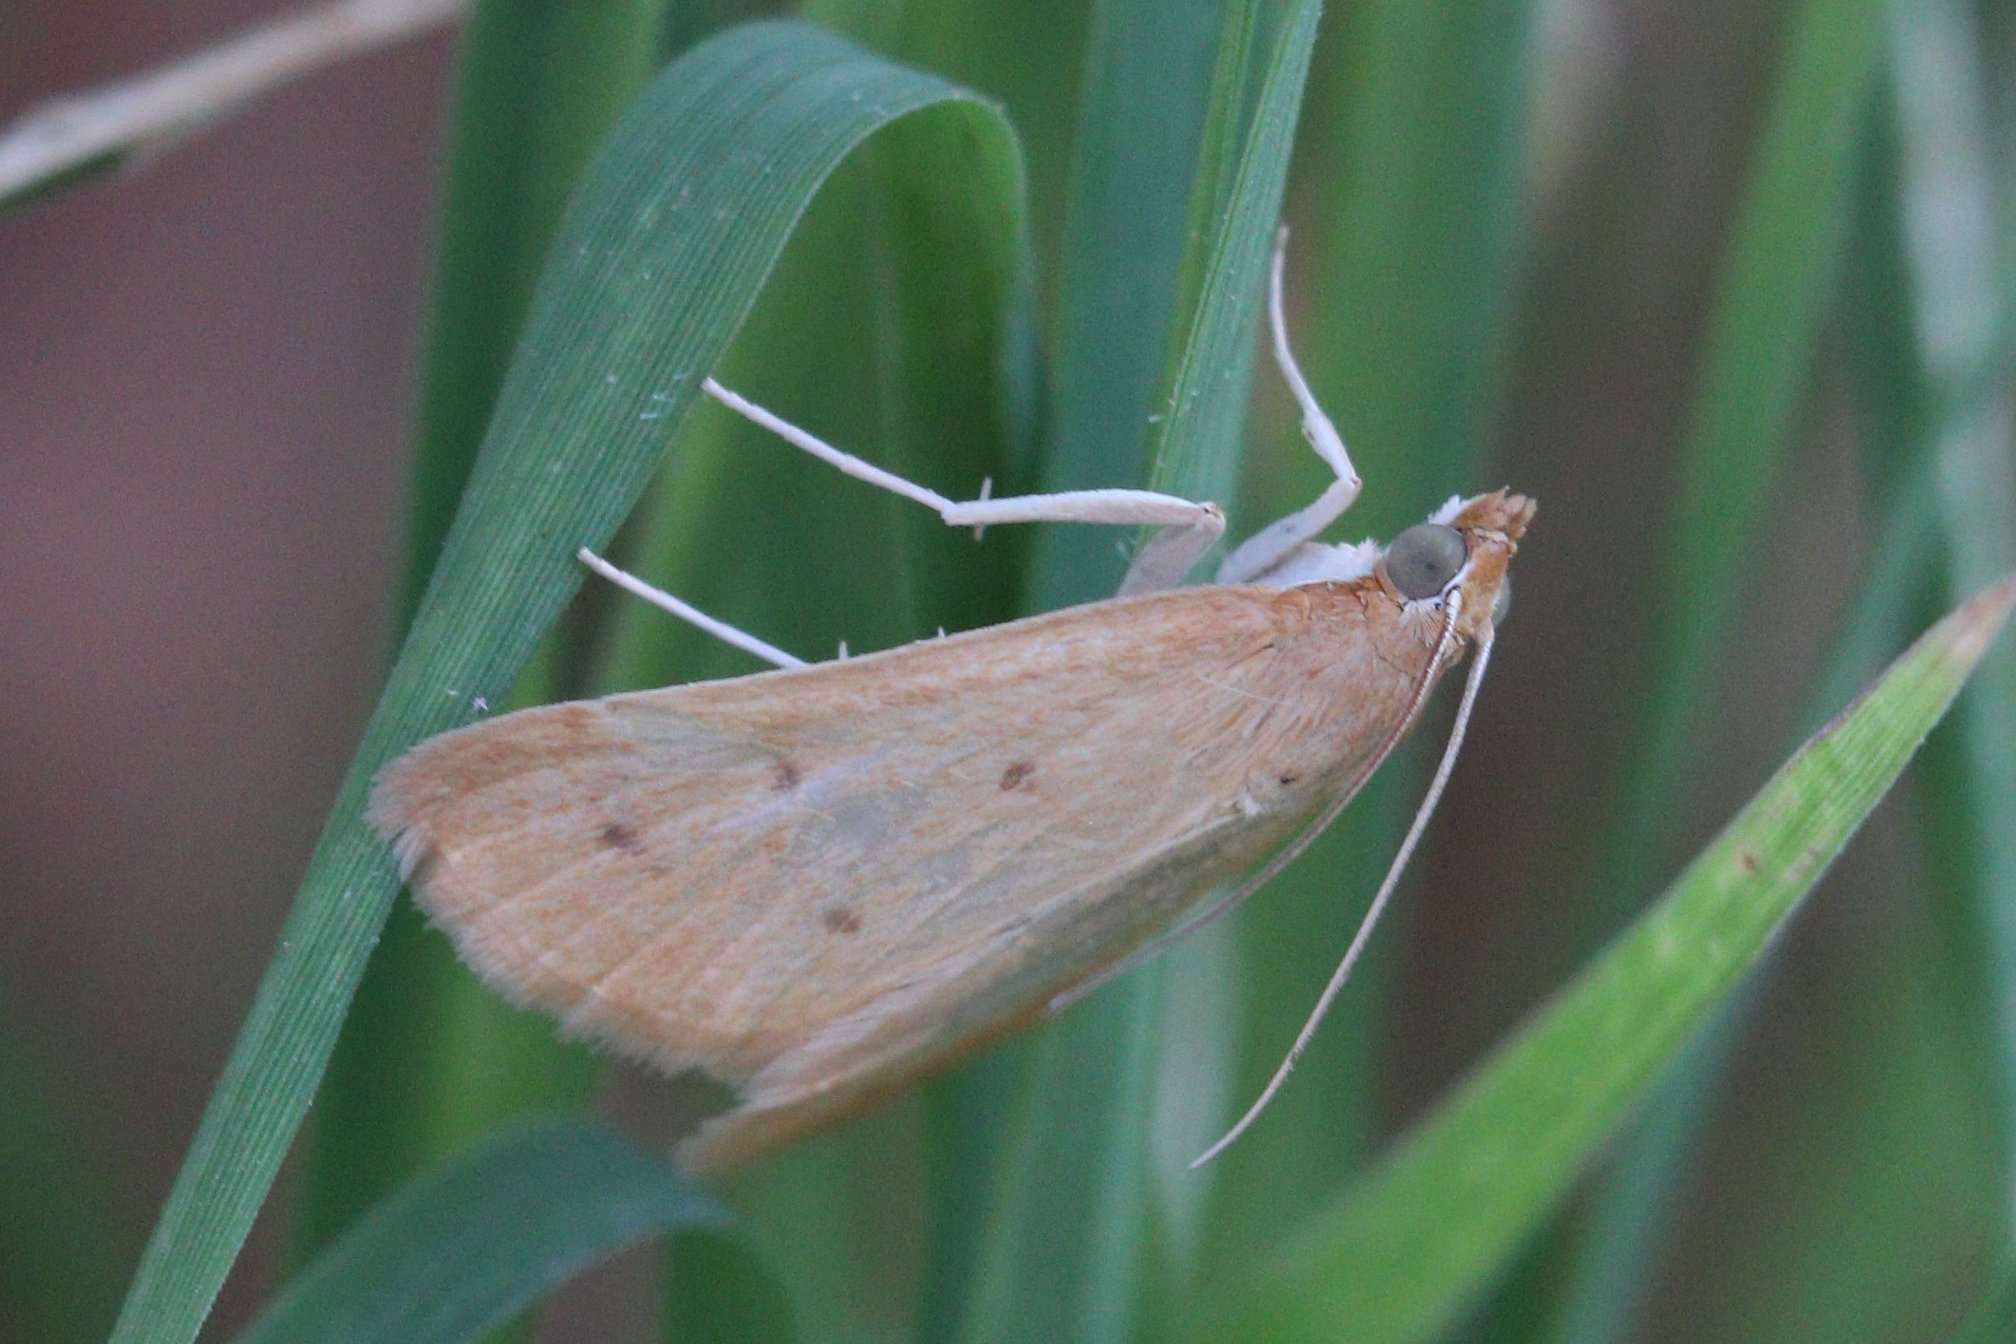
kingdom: Animalia
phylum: Arthropoda
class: Insecta
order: Lepidoptera
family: Crambidae
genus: Achyra
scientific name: Achyra nudalis
